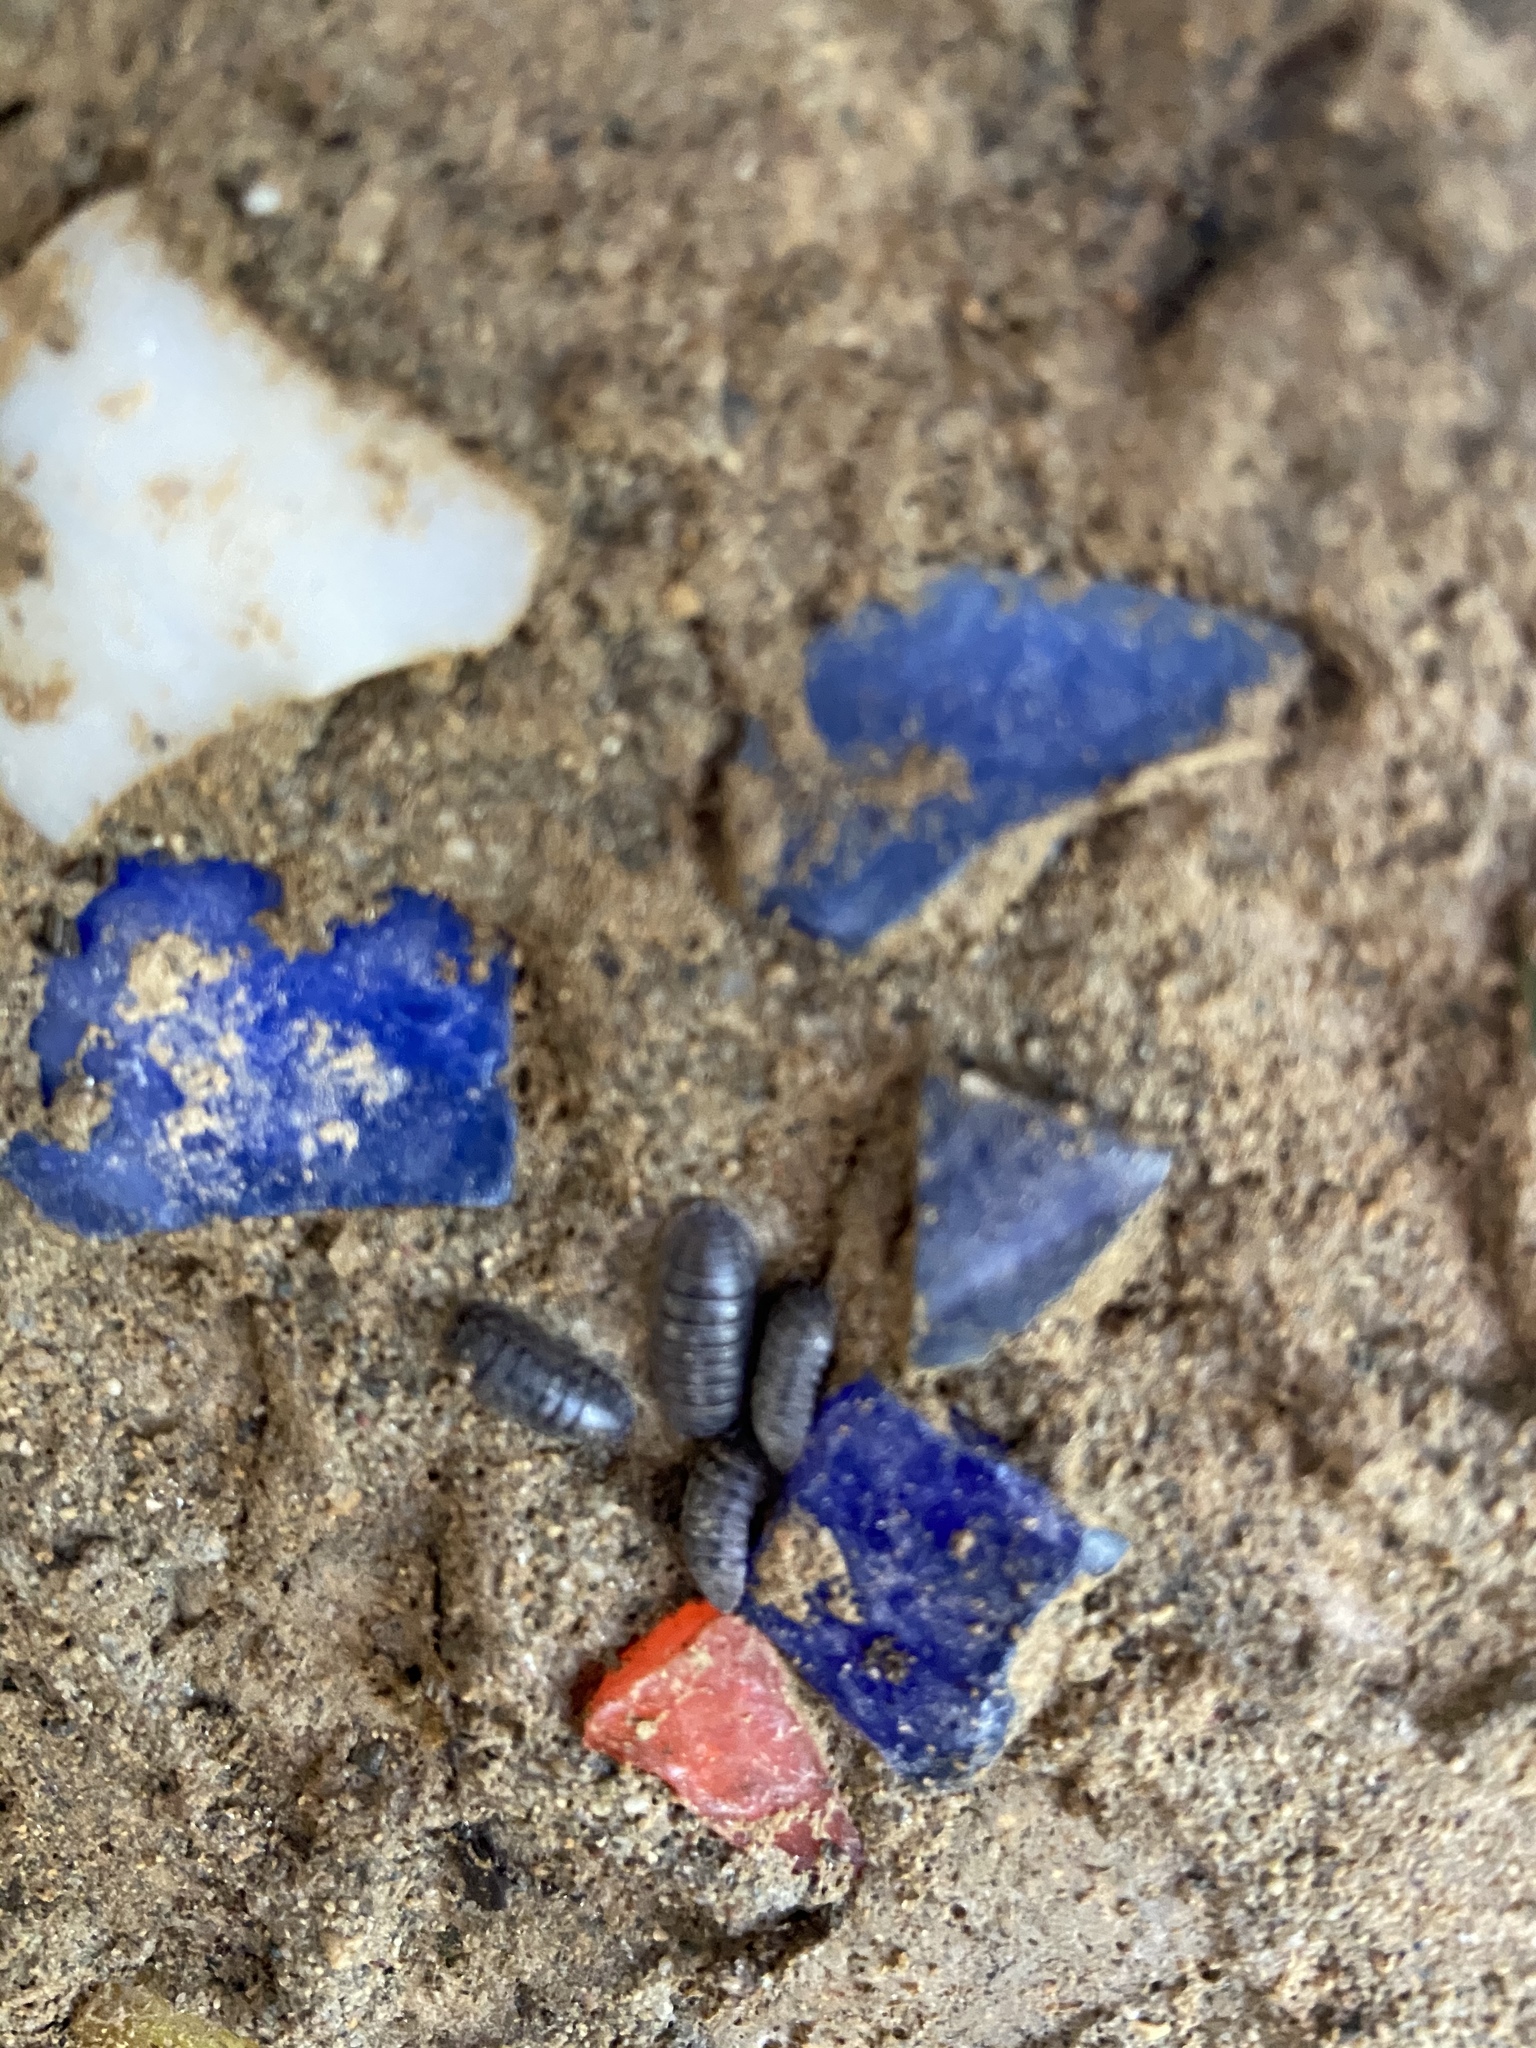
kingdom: Animalia
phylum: Arthropoda
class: Malacostraca
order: Isopoda
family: Armadillidiidae
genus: Armadillidium
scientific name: Armadillidium vulgare
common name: Common pill woodlouse
